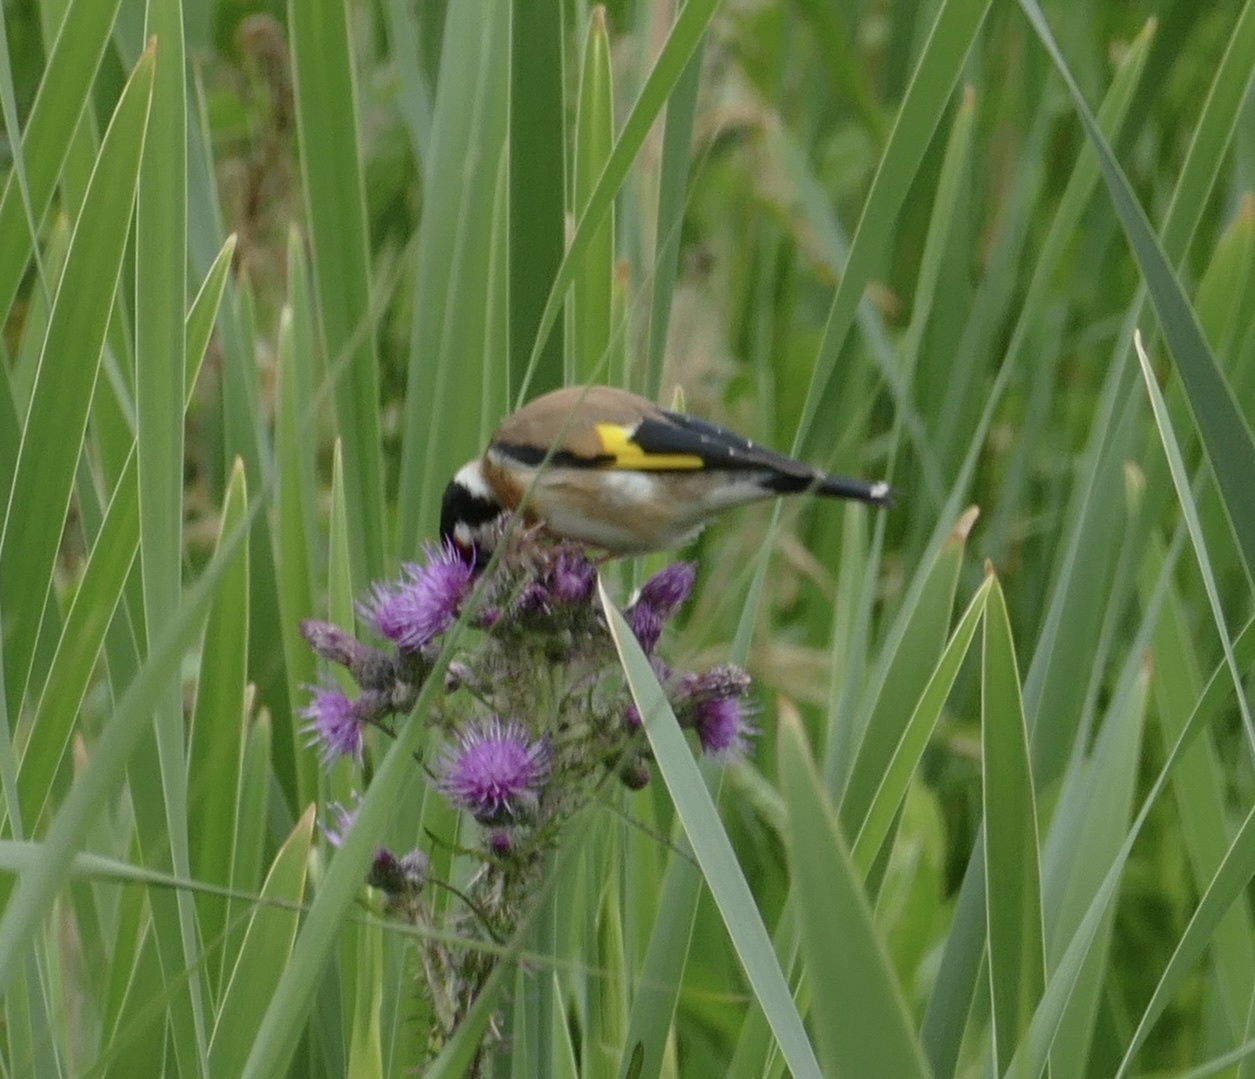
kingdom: Animalia
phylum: Chordata
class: Aves
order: Passeriformes
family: Fringillidae
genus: Carduelis
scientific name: Carduelis carduelis
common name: European goldfinch
